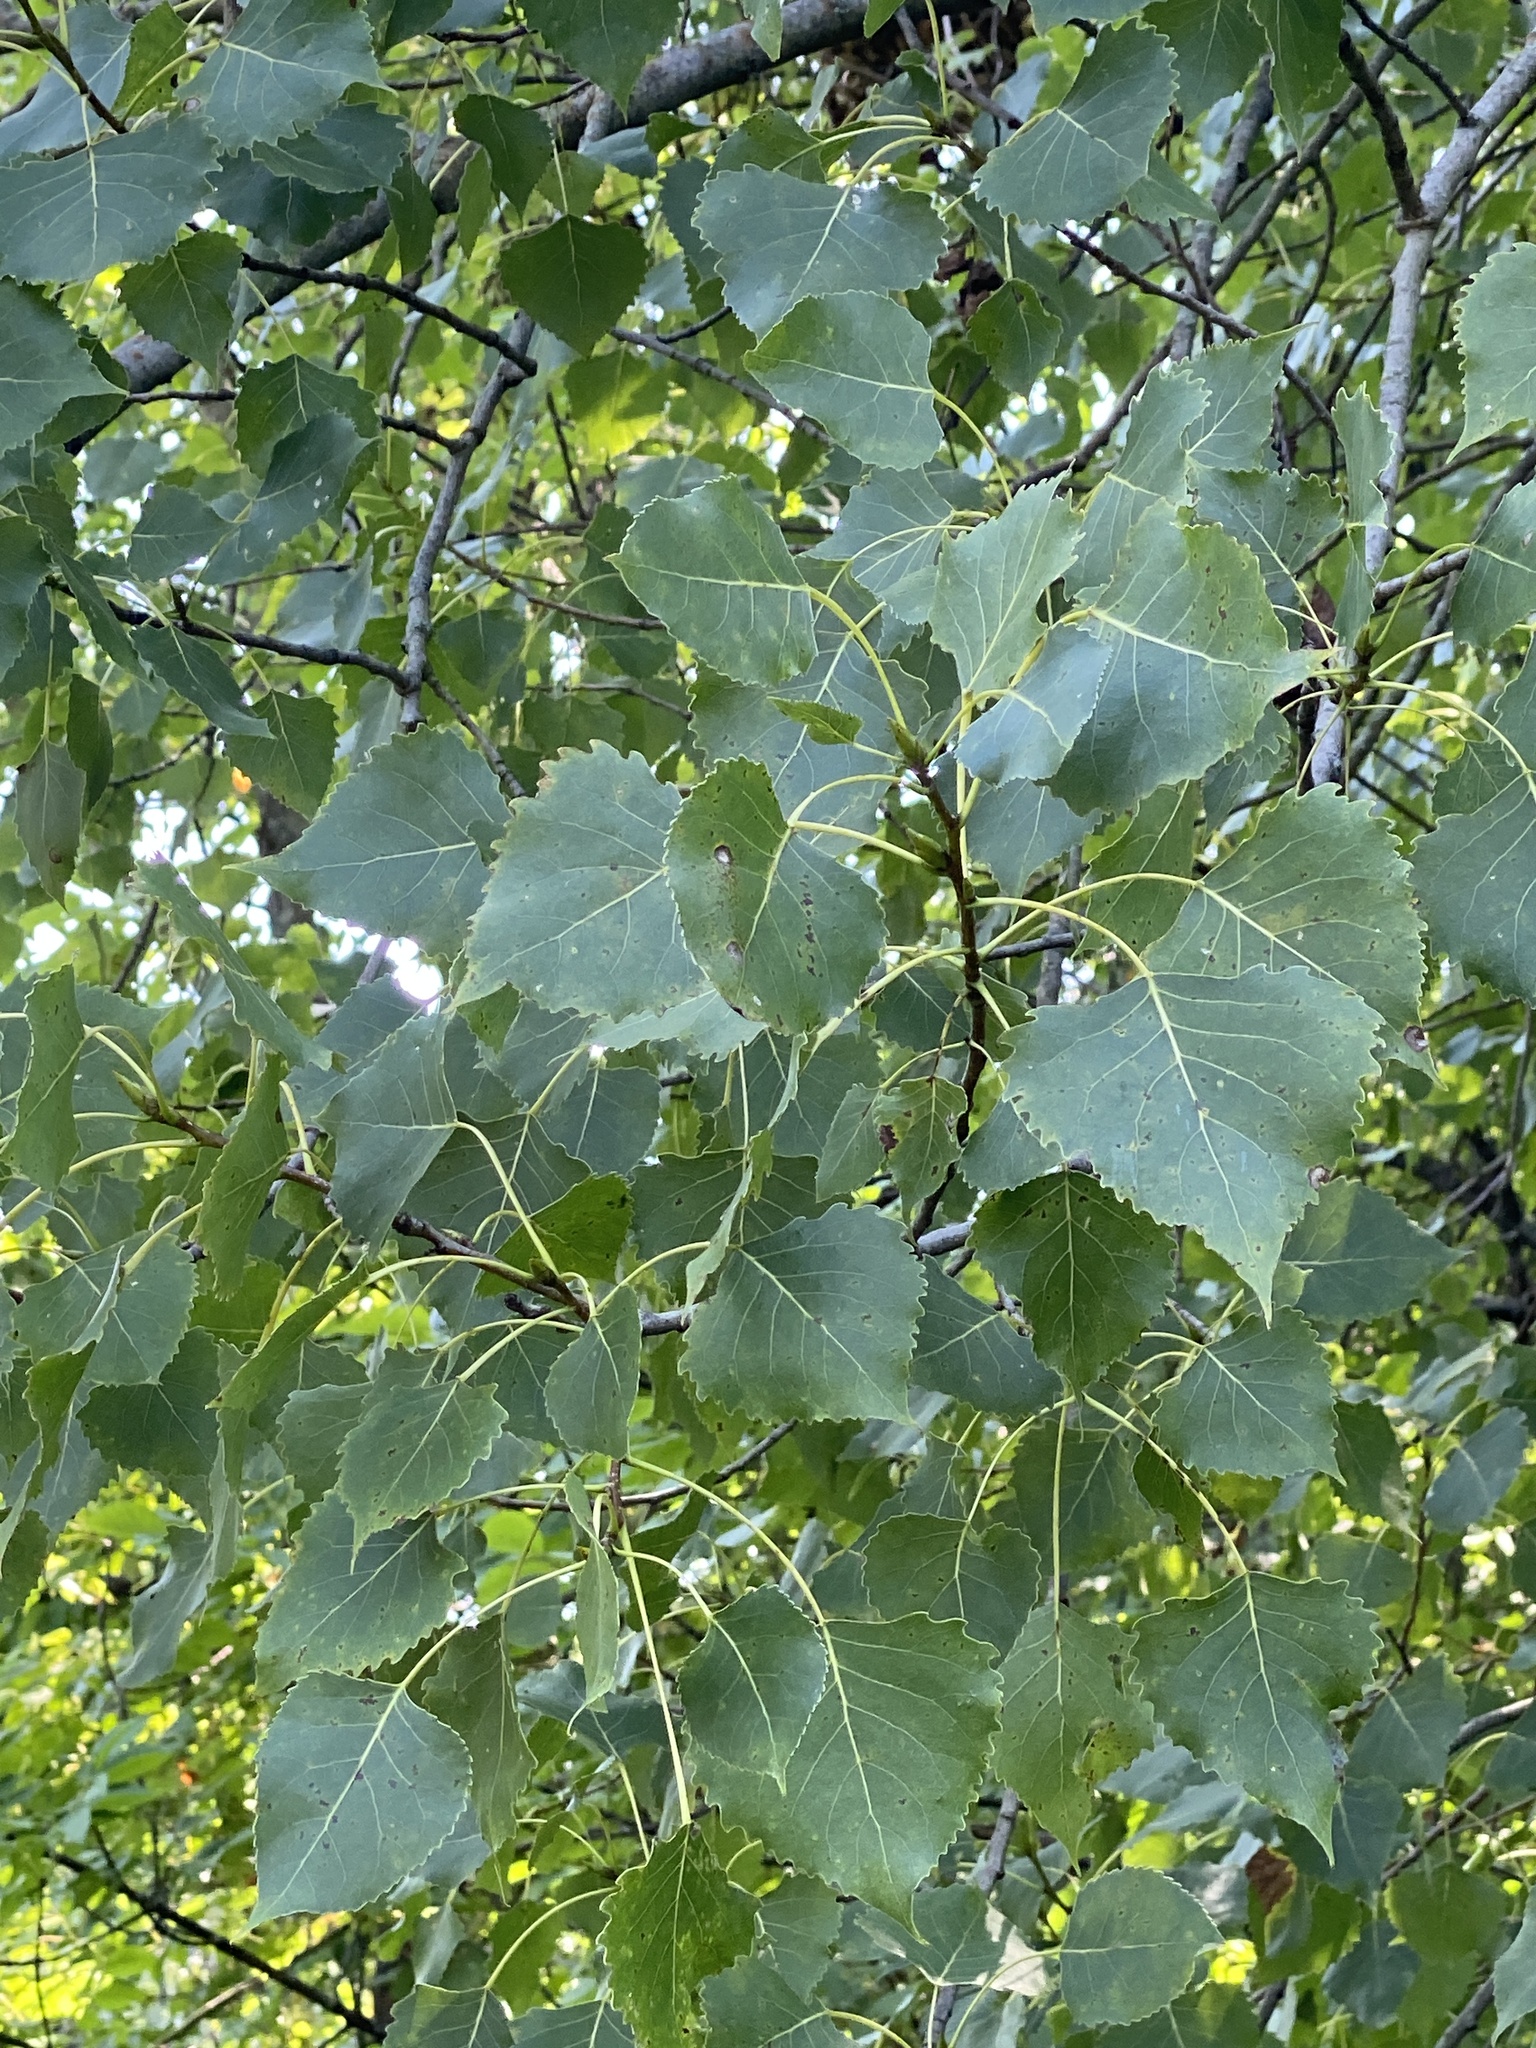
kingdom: Plantae
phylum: Tracheophyta
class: Magnoliopsida
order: Malpighiales
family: Salicaceae
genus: Populus
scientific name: Populus deltoides
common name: Eastern cottonwood
